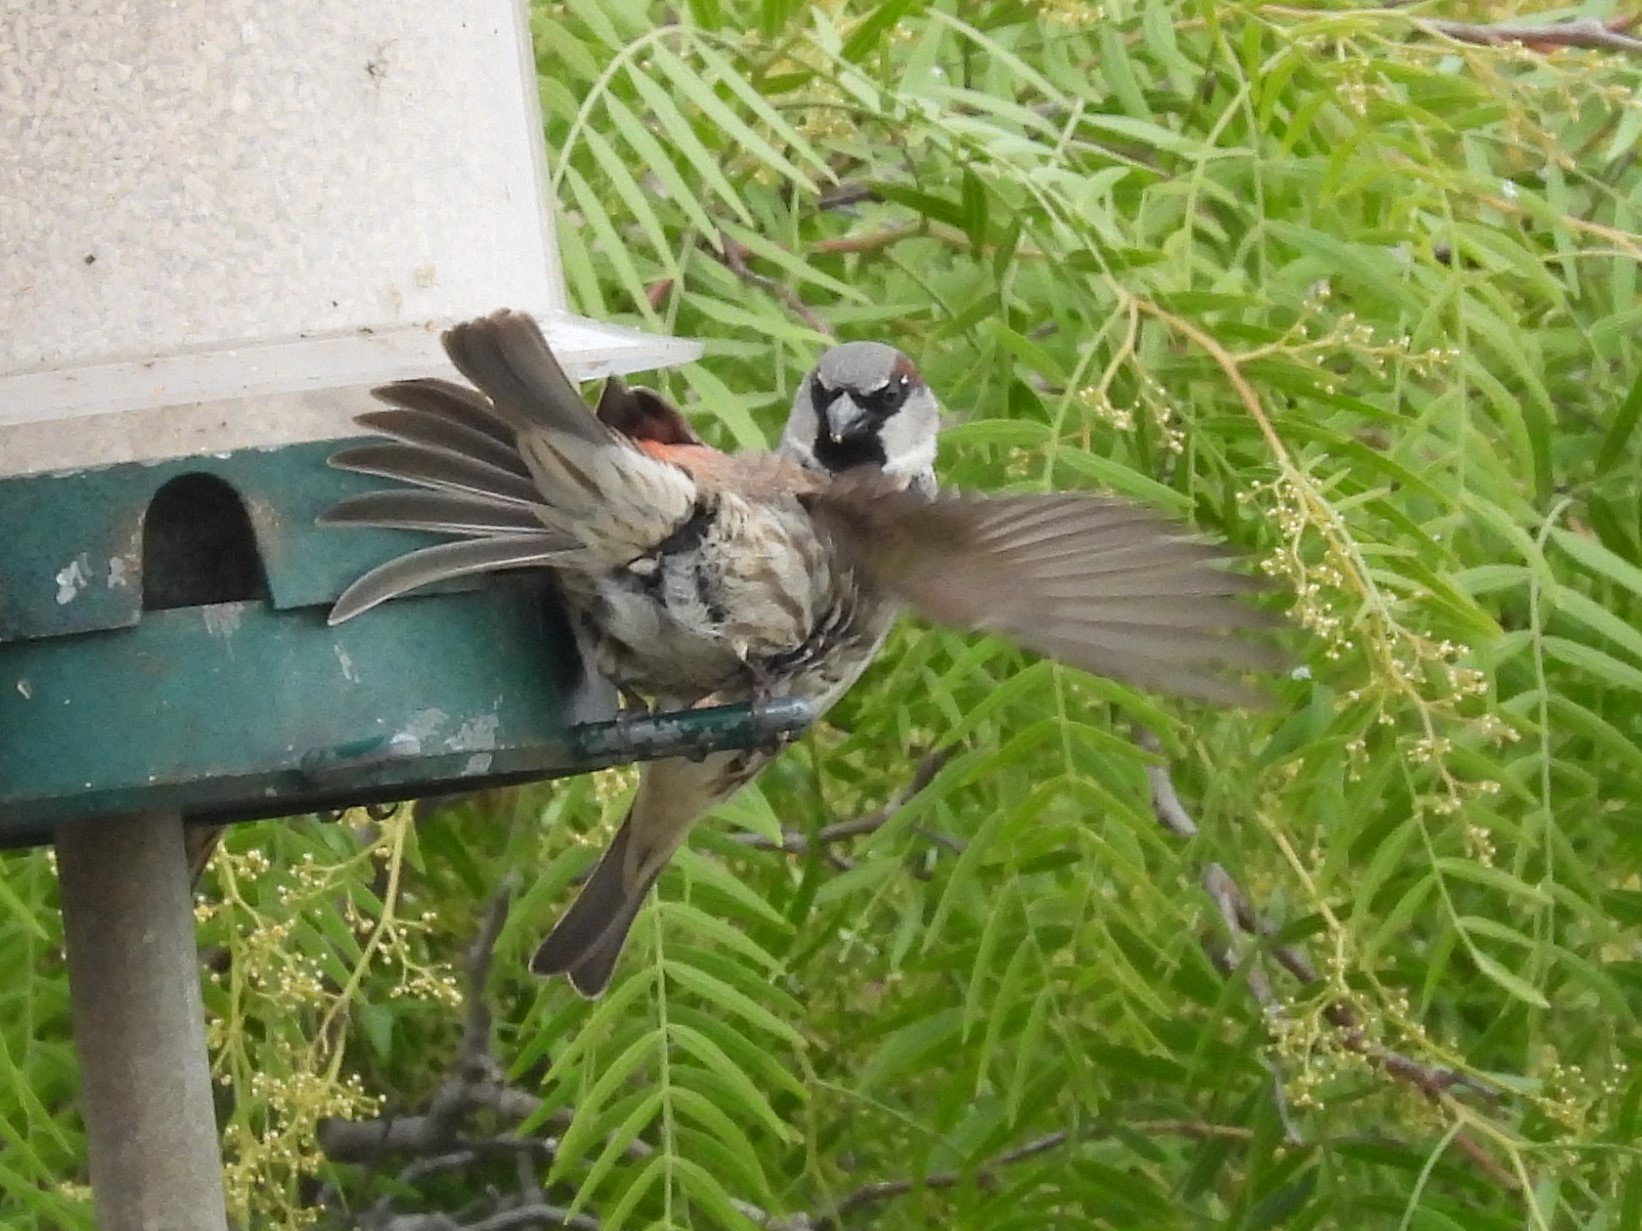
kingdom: Animalia
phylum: Chordata
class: Aves
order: Passeriformes
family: Passeridae
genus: Passer
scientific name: Passer domesticus
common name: House sparrow
